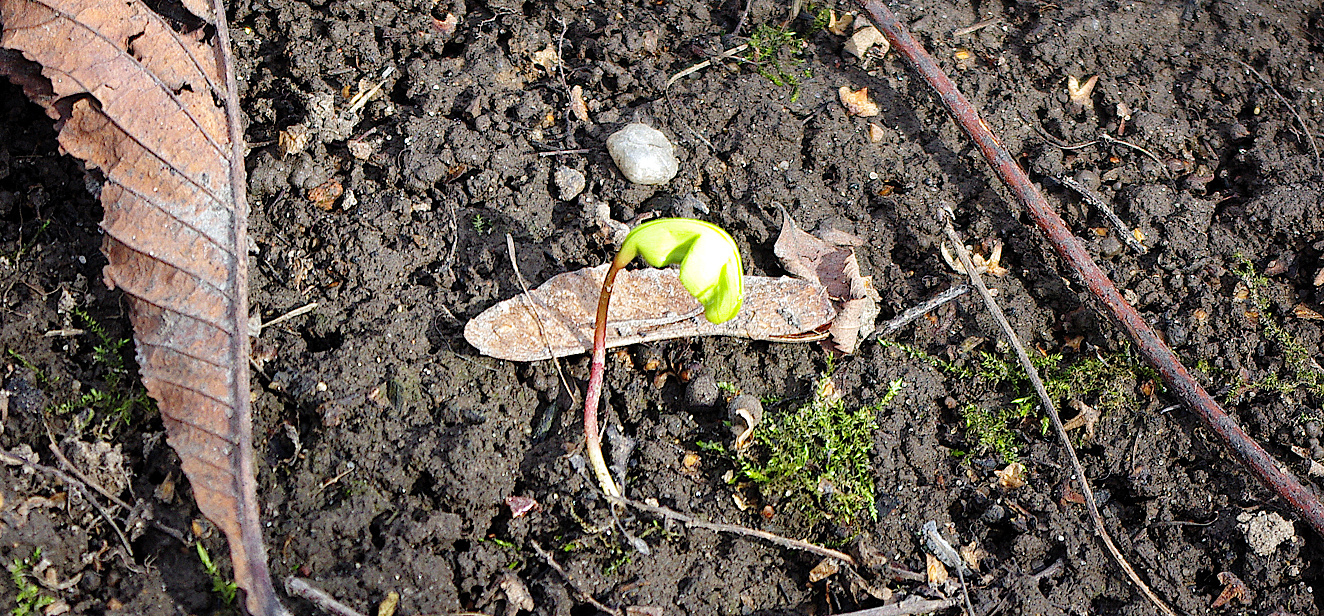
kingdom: Plantae
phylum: Tracheophyta
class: Magnoliopsida
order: Sapindales
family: Sapindaceae
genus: Acer
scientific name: Acer platanoides
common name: Norway maple
